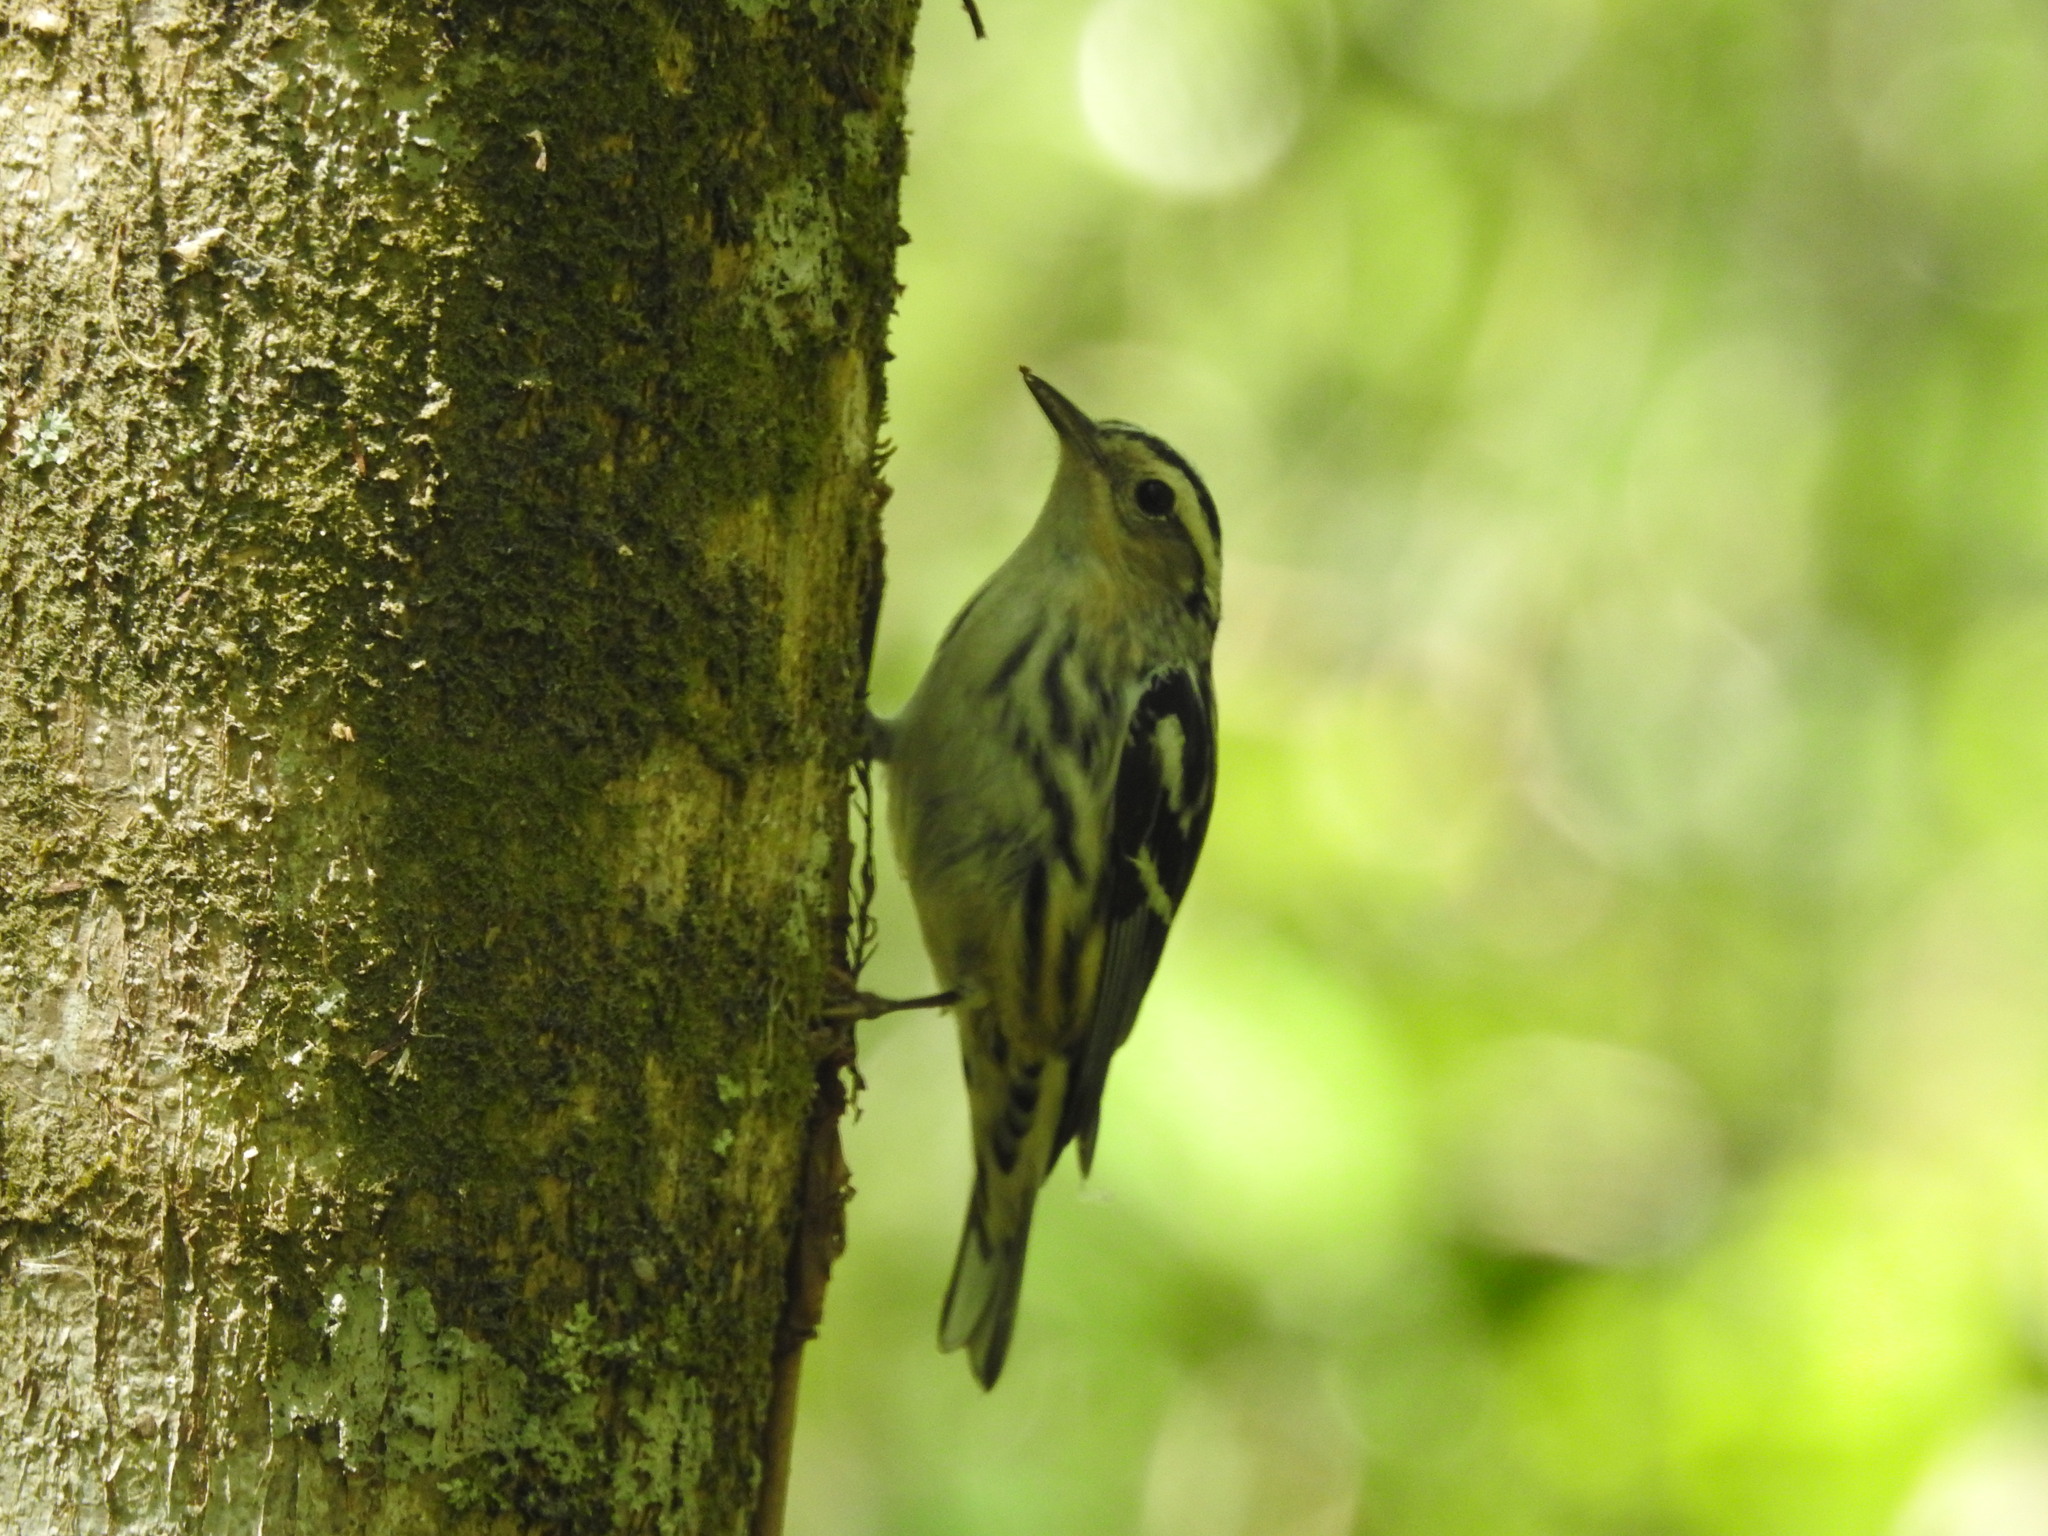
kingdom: Animalia
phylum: Chordata
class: Aves
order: Passeriformes
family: Parulidae
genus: Mniotilta
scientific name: Mniotilta varia
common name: Black-and-white warbler
